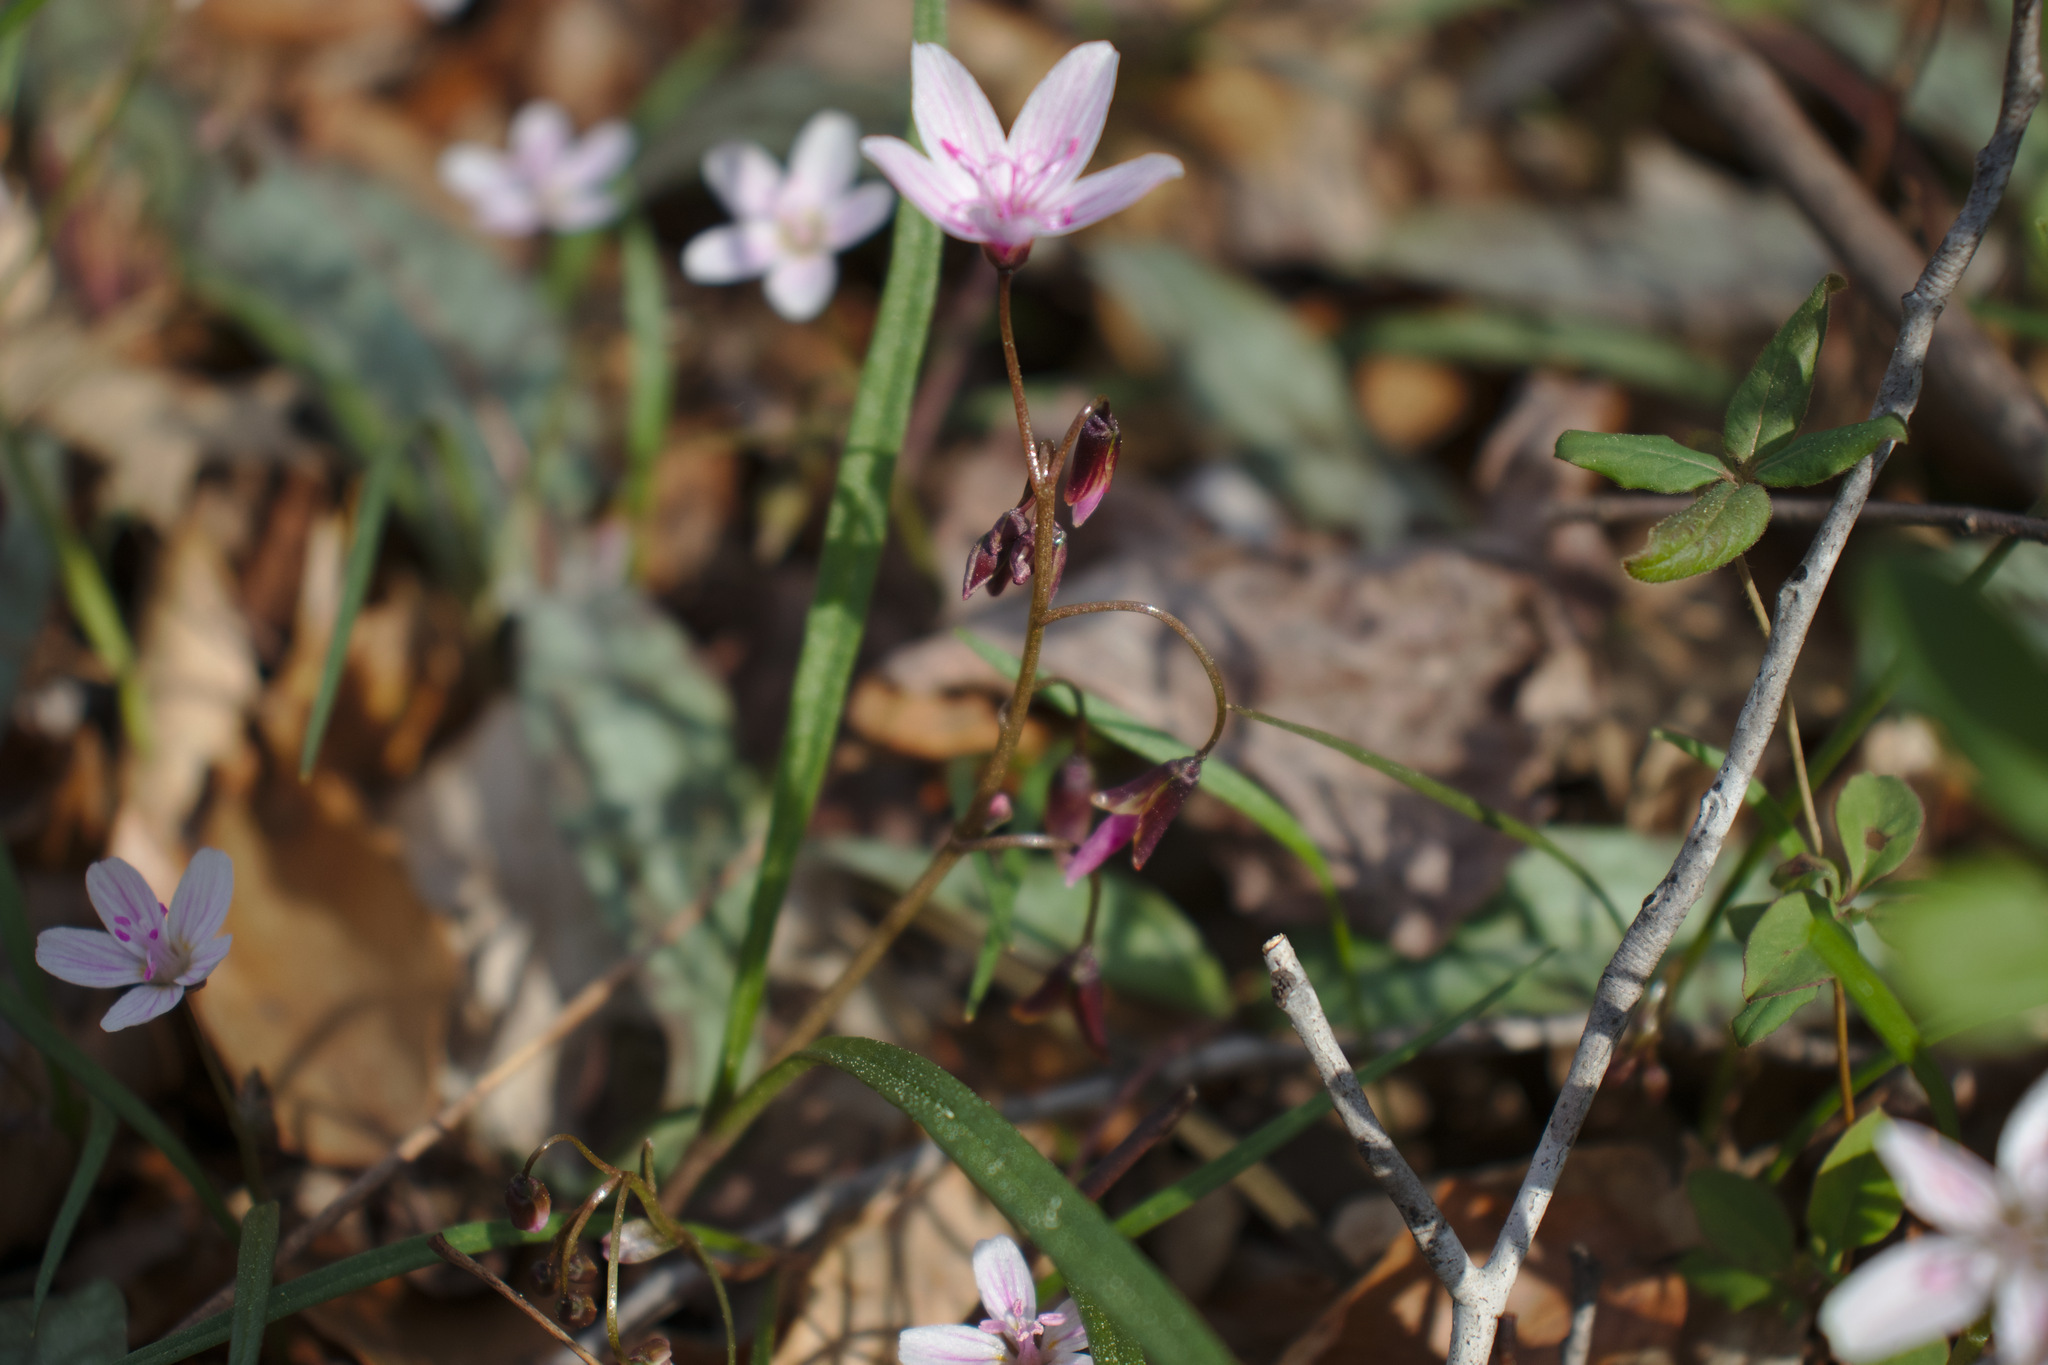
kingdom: Plantae
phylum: Tracheophyta
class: Magnoliopsida
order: Caryophyllales
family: Montiaceae
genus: Claytonia
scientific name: Claytonia virginica
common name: Virginia springbeauty
